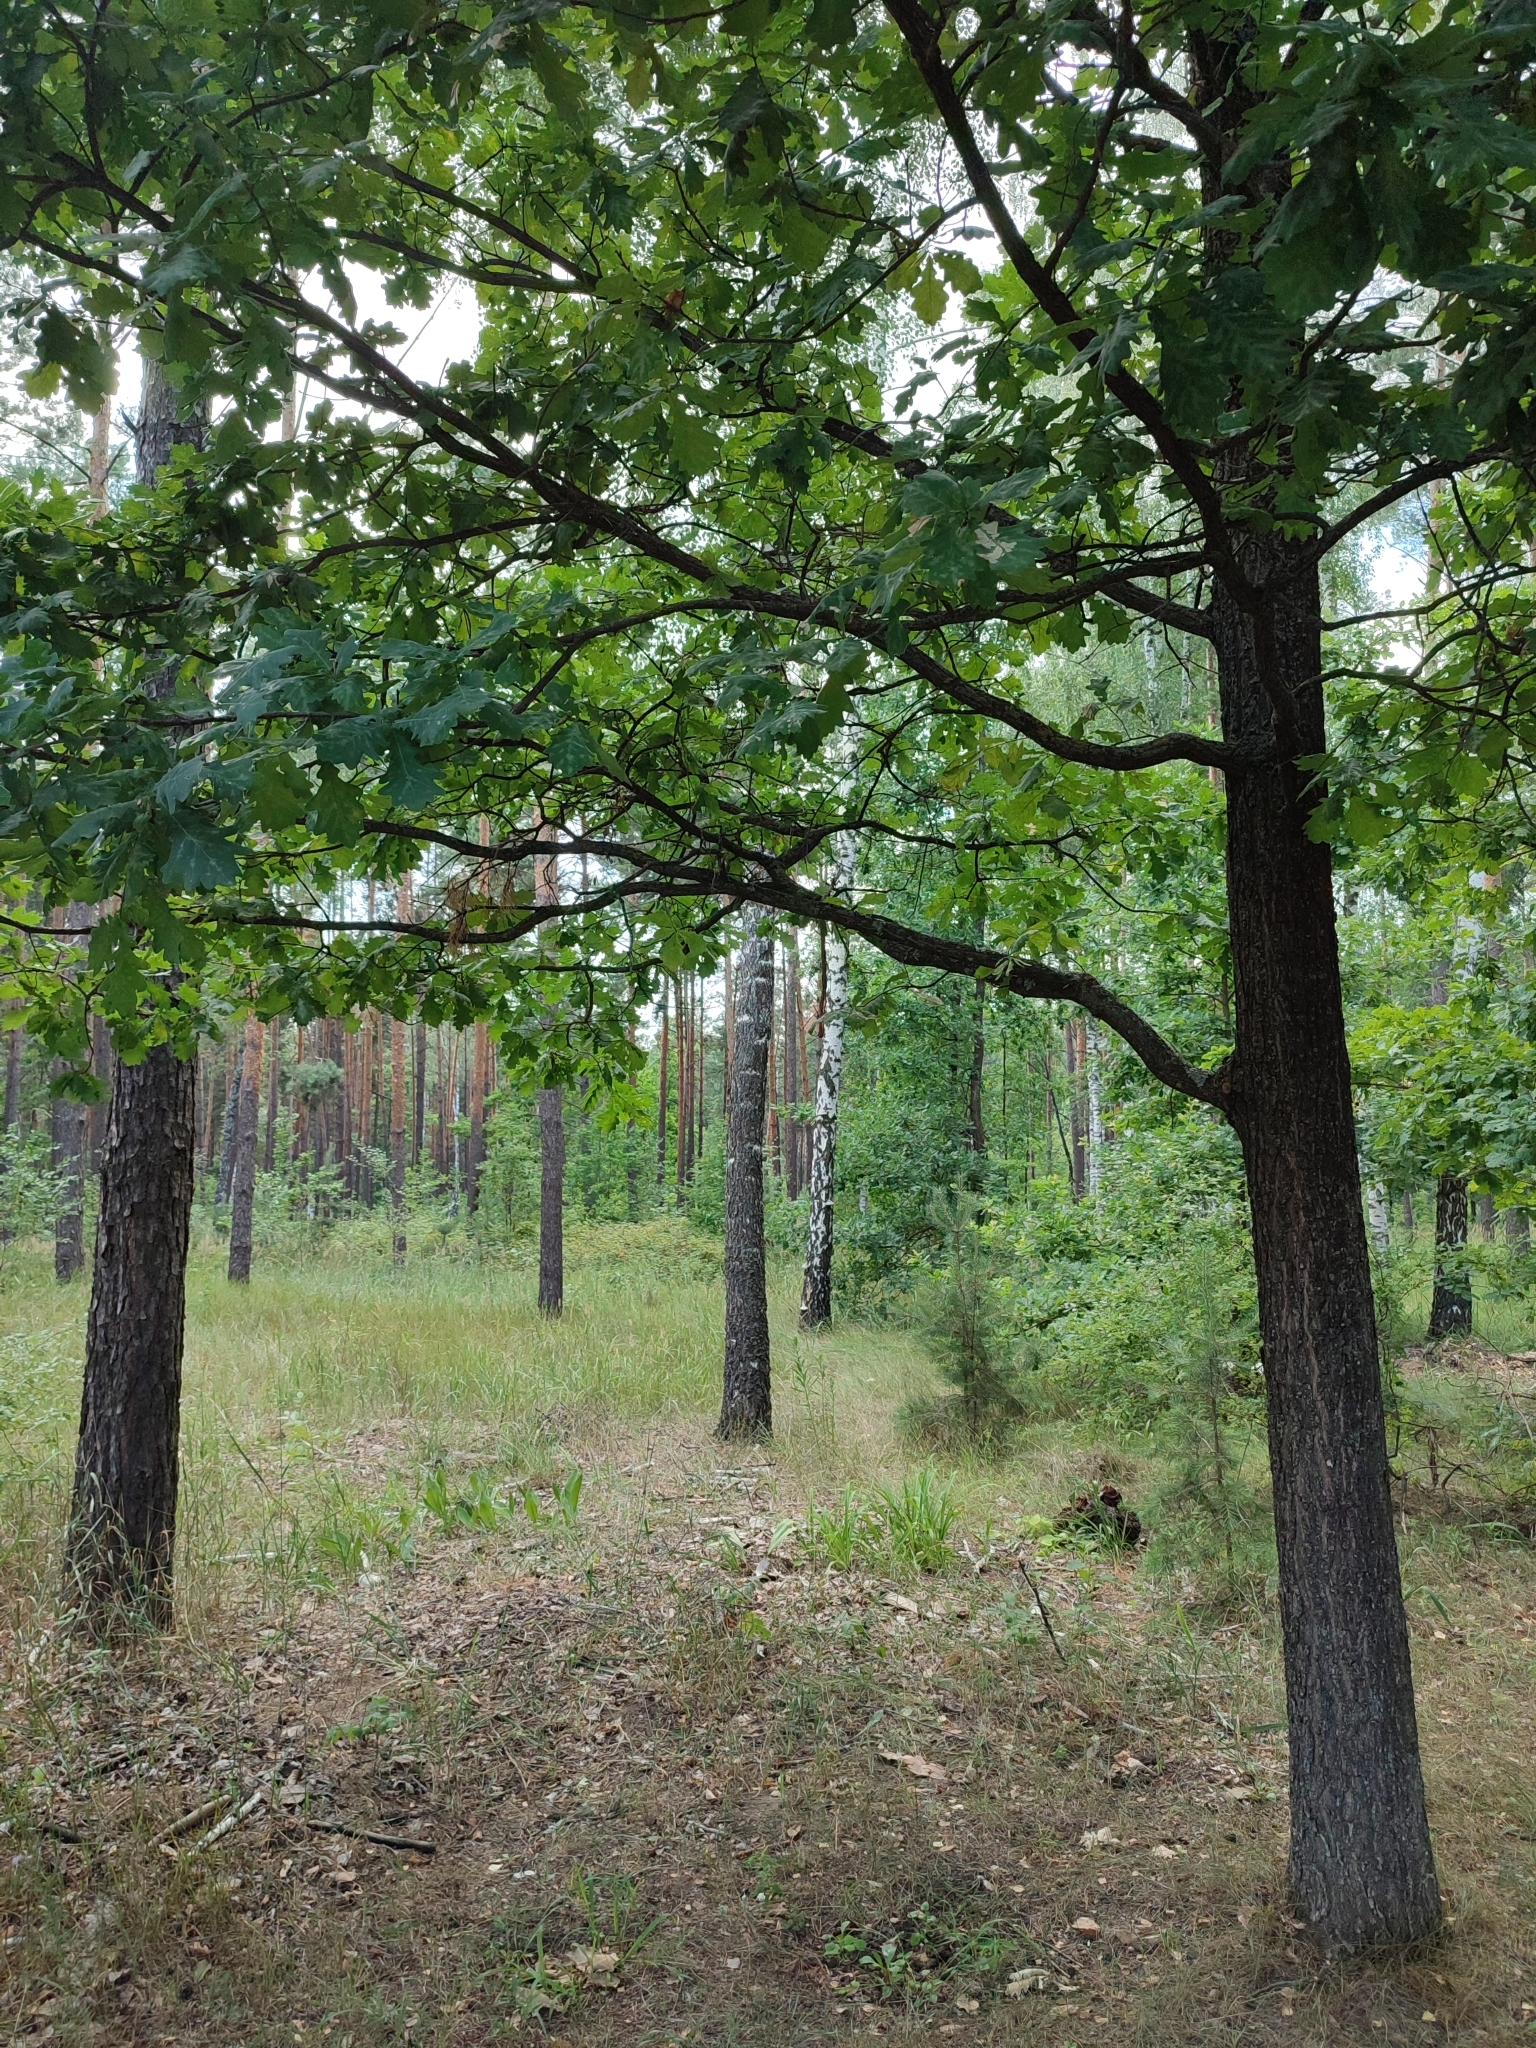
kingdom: Plantae
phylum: Tracheophyta
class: Magnoliopsida
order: Fagales
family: Fagaceae
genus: Quercus
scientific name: Quercus robur
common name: Pedunculate oak
